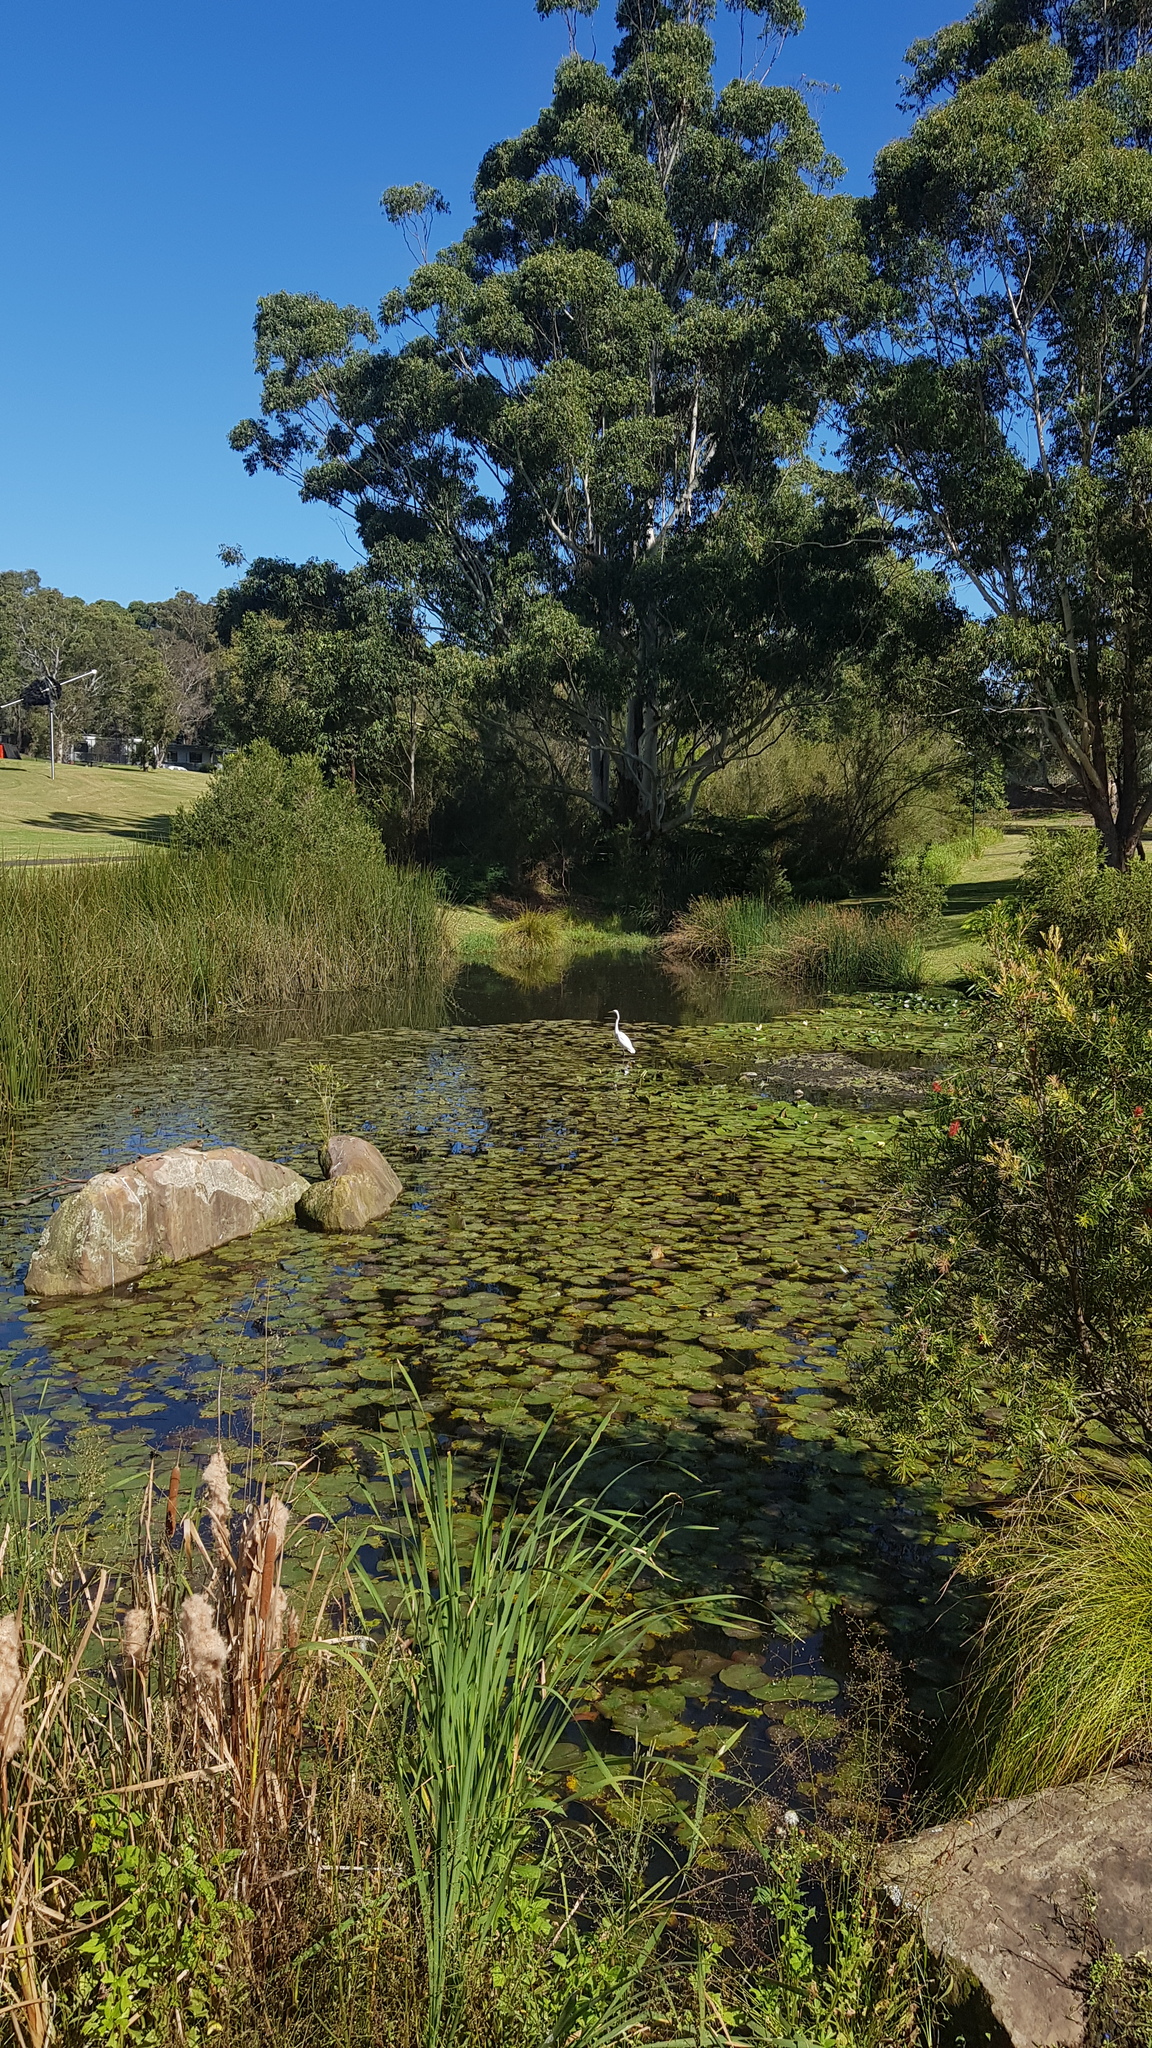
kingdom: Animalia
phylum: Chordata
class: Aves
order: Pelecaniformes
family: Ardeidae
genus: Ardea
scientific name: Ardea alba
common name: Great egret
